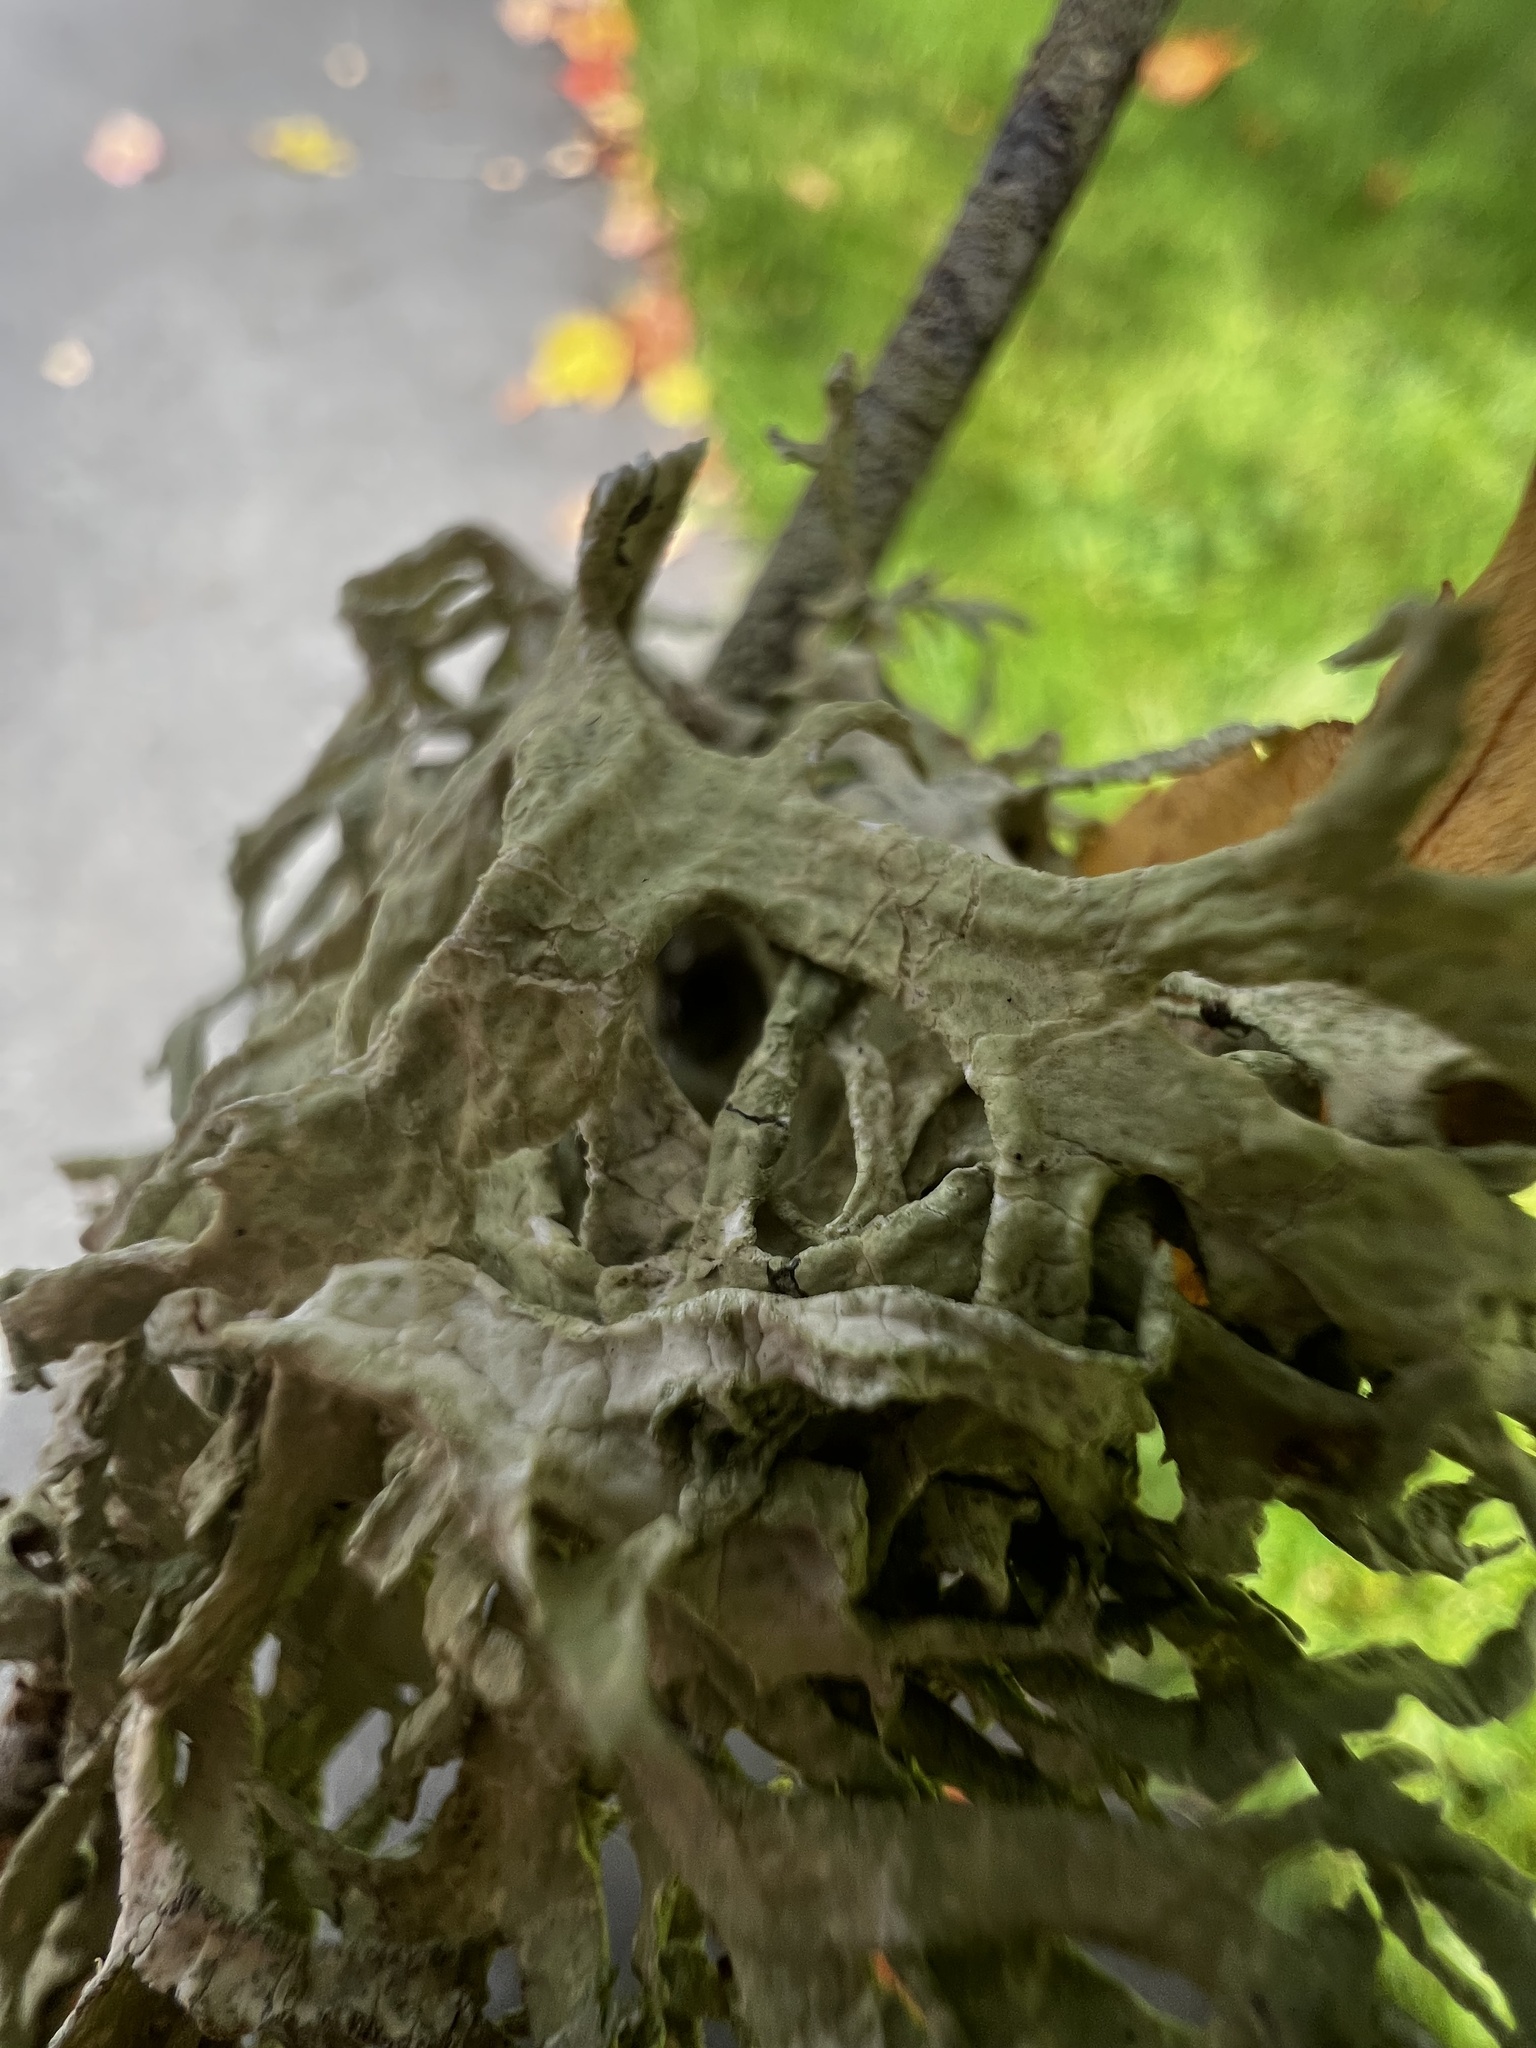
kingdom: Fungi
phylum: Ascomycota
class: Lecanoromycetes
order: Lecanorales
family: Parmeliaceae
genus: Evernia
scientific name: Evernia prunastri
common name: Oak moss
